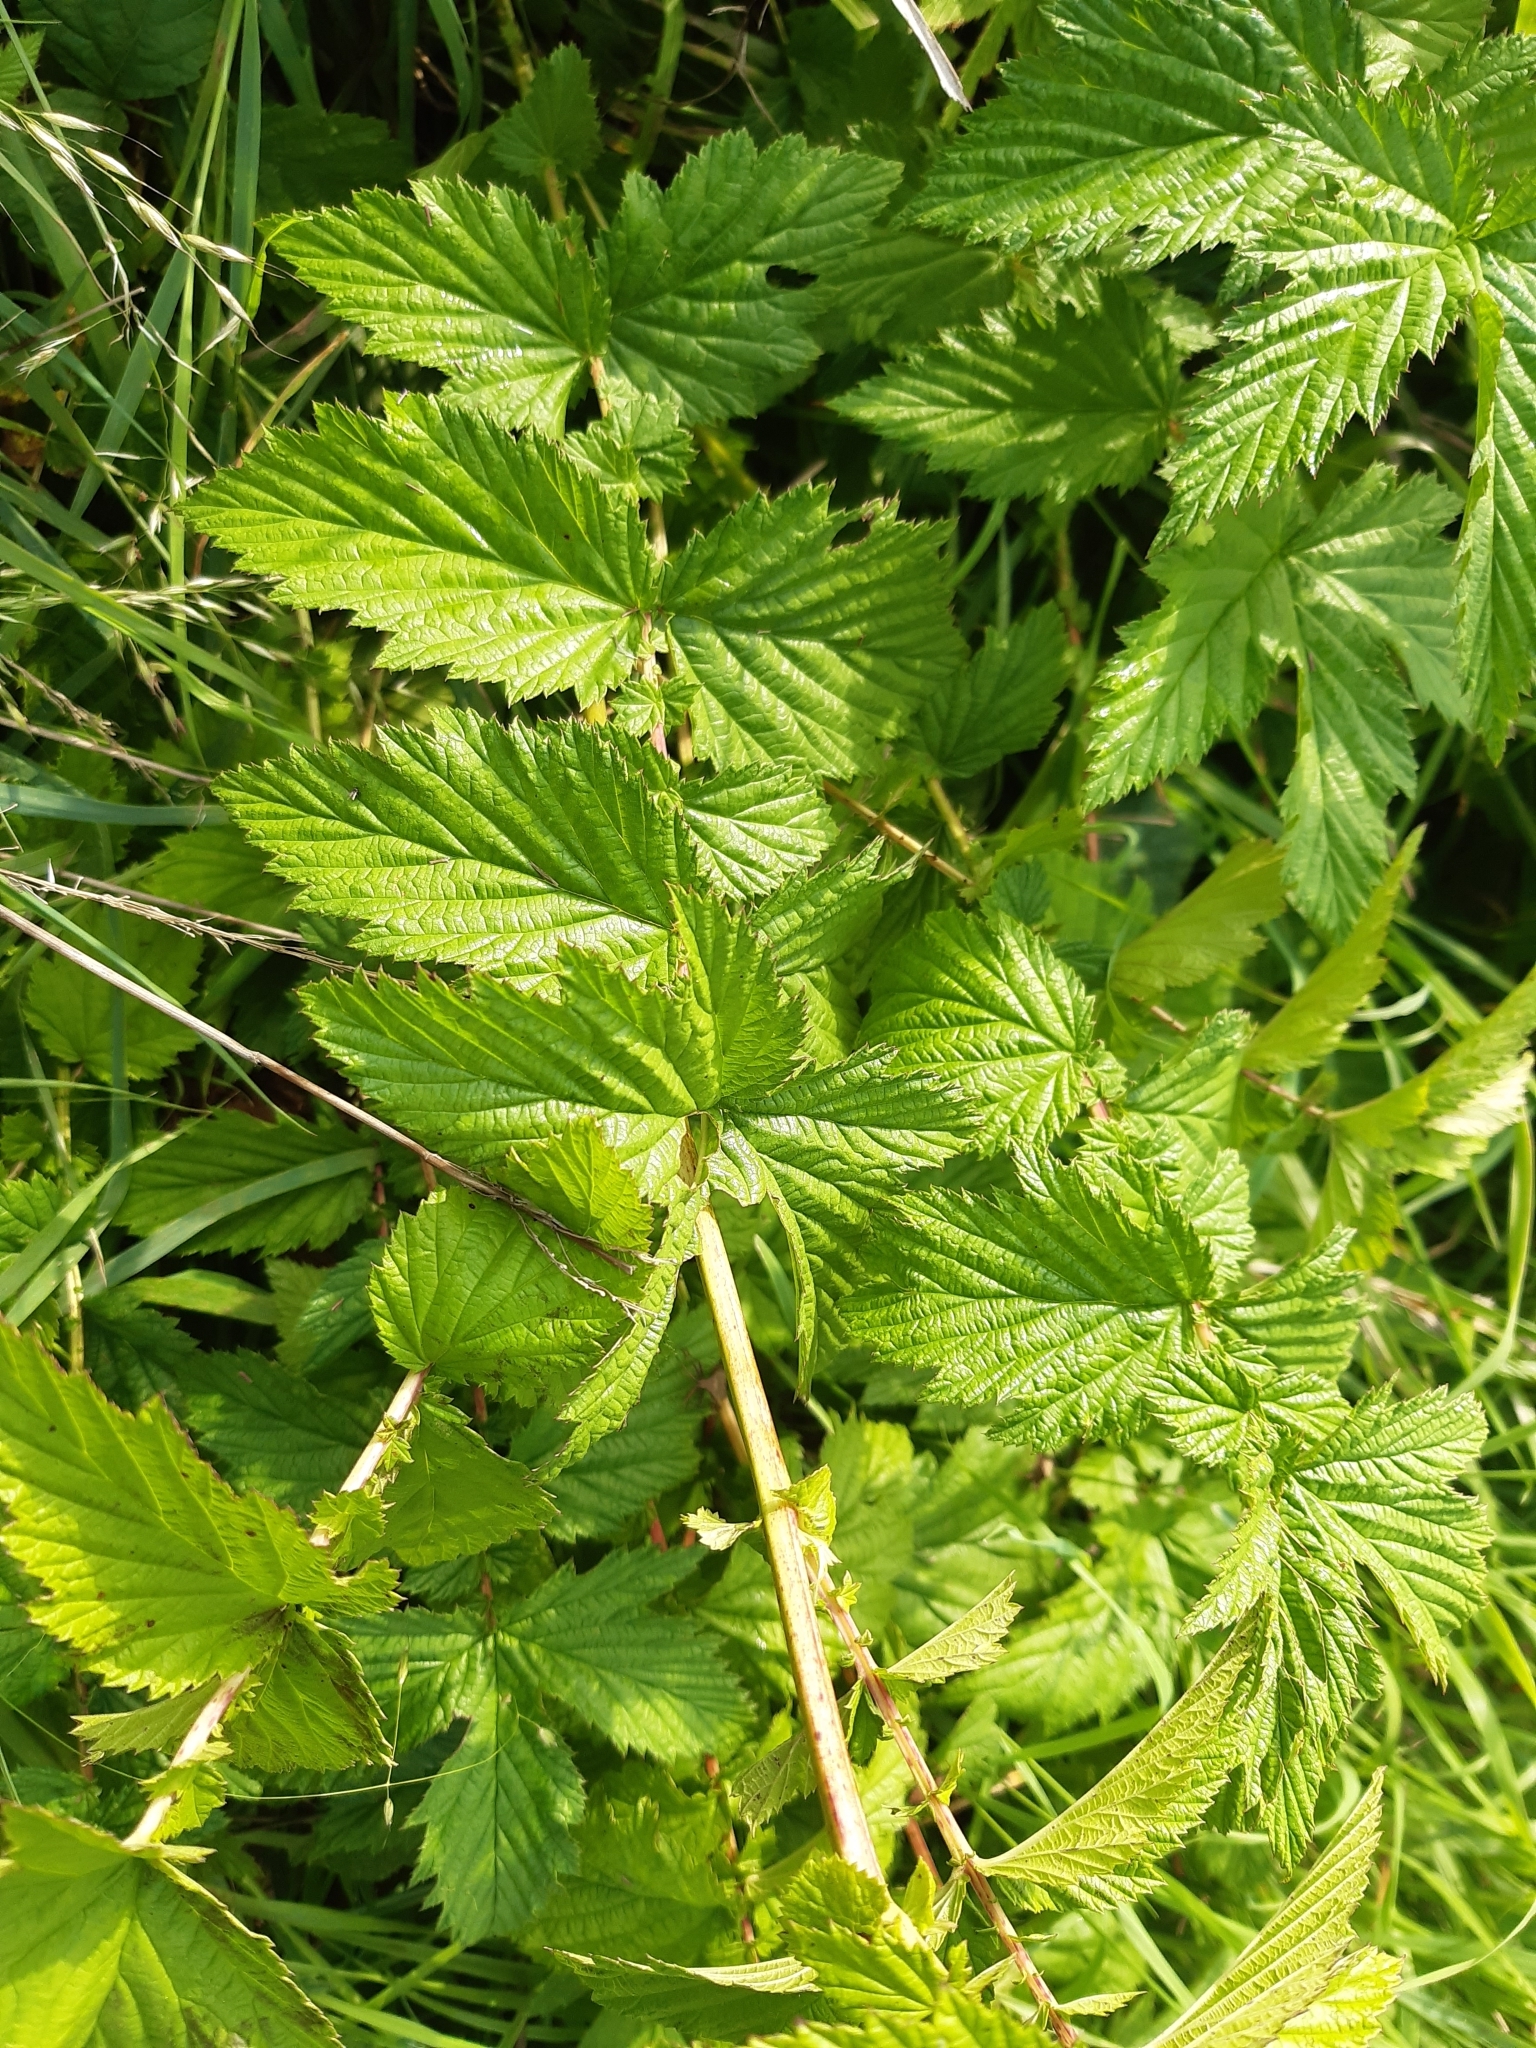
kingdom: Plantae
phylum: Tracheophyta
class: Magnoliopsida
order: Rosales
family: Rosaceae
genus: Filipendula
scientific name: Filipendula ulmaria
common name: Meadowsweet
